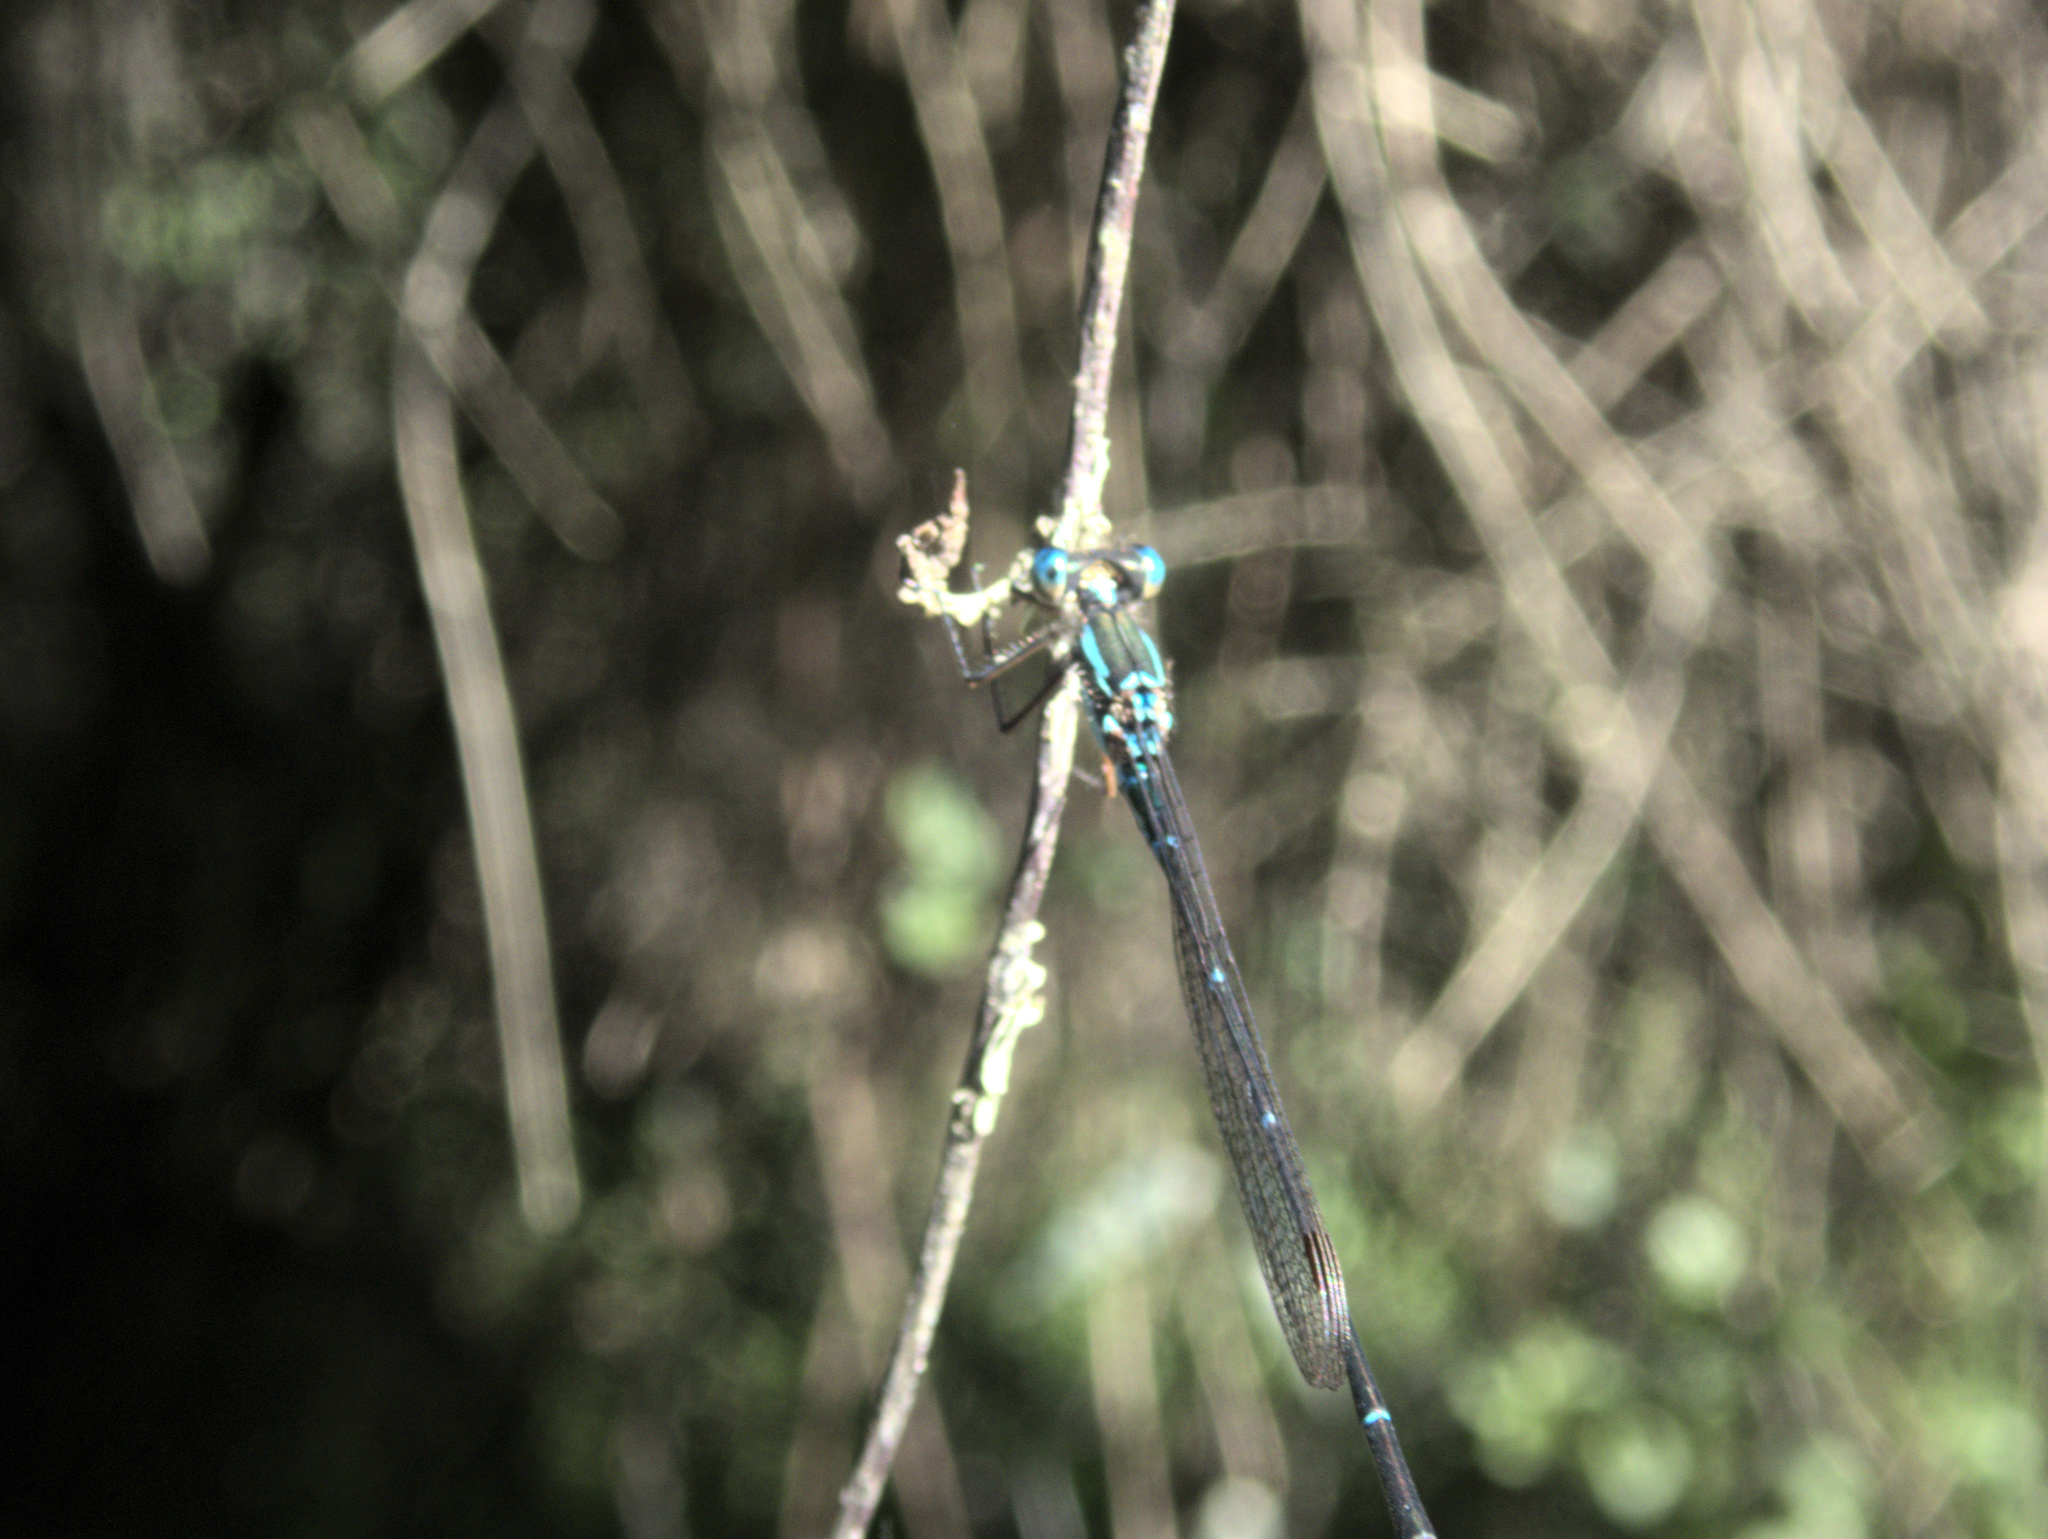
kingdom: Animalia
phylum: Arthropoda
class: Insecta
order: Odonata
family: Lestidae
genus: Austrolestes
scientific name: Austrolestes colensonis
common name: Blue damselfly
